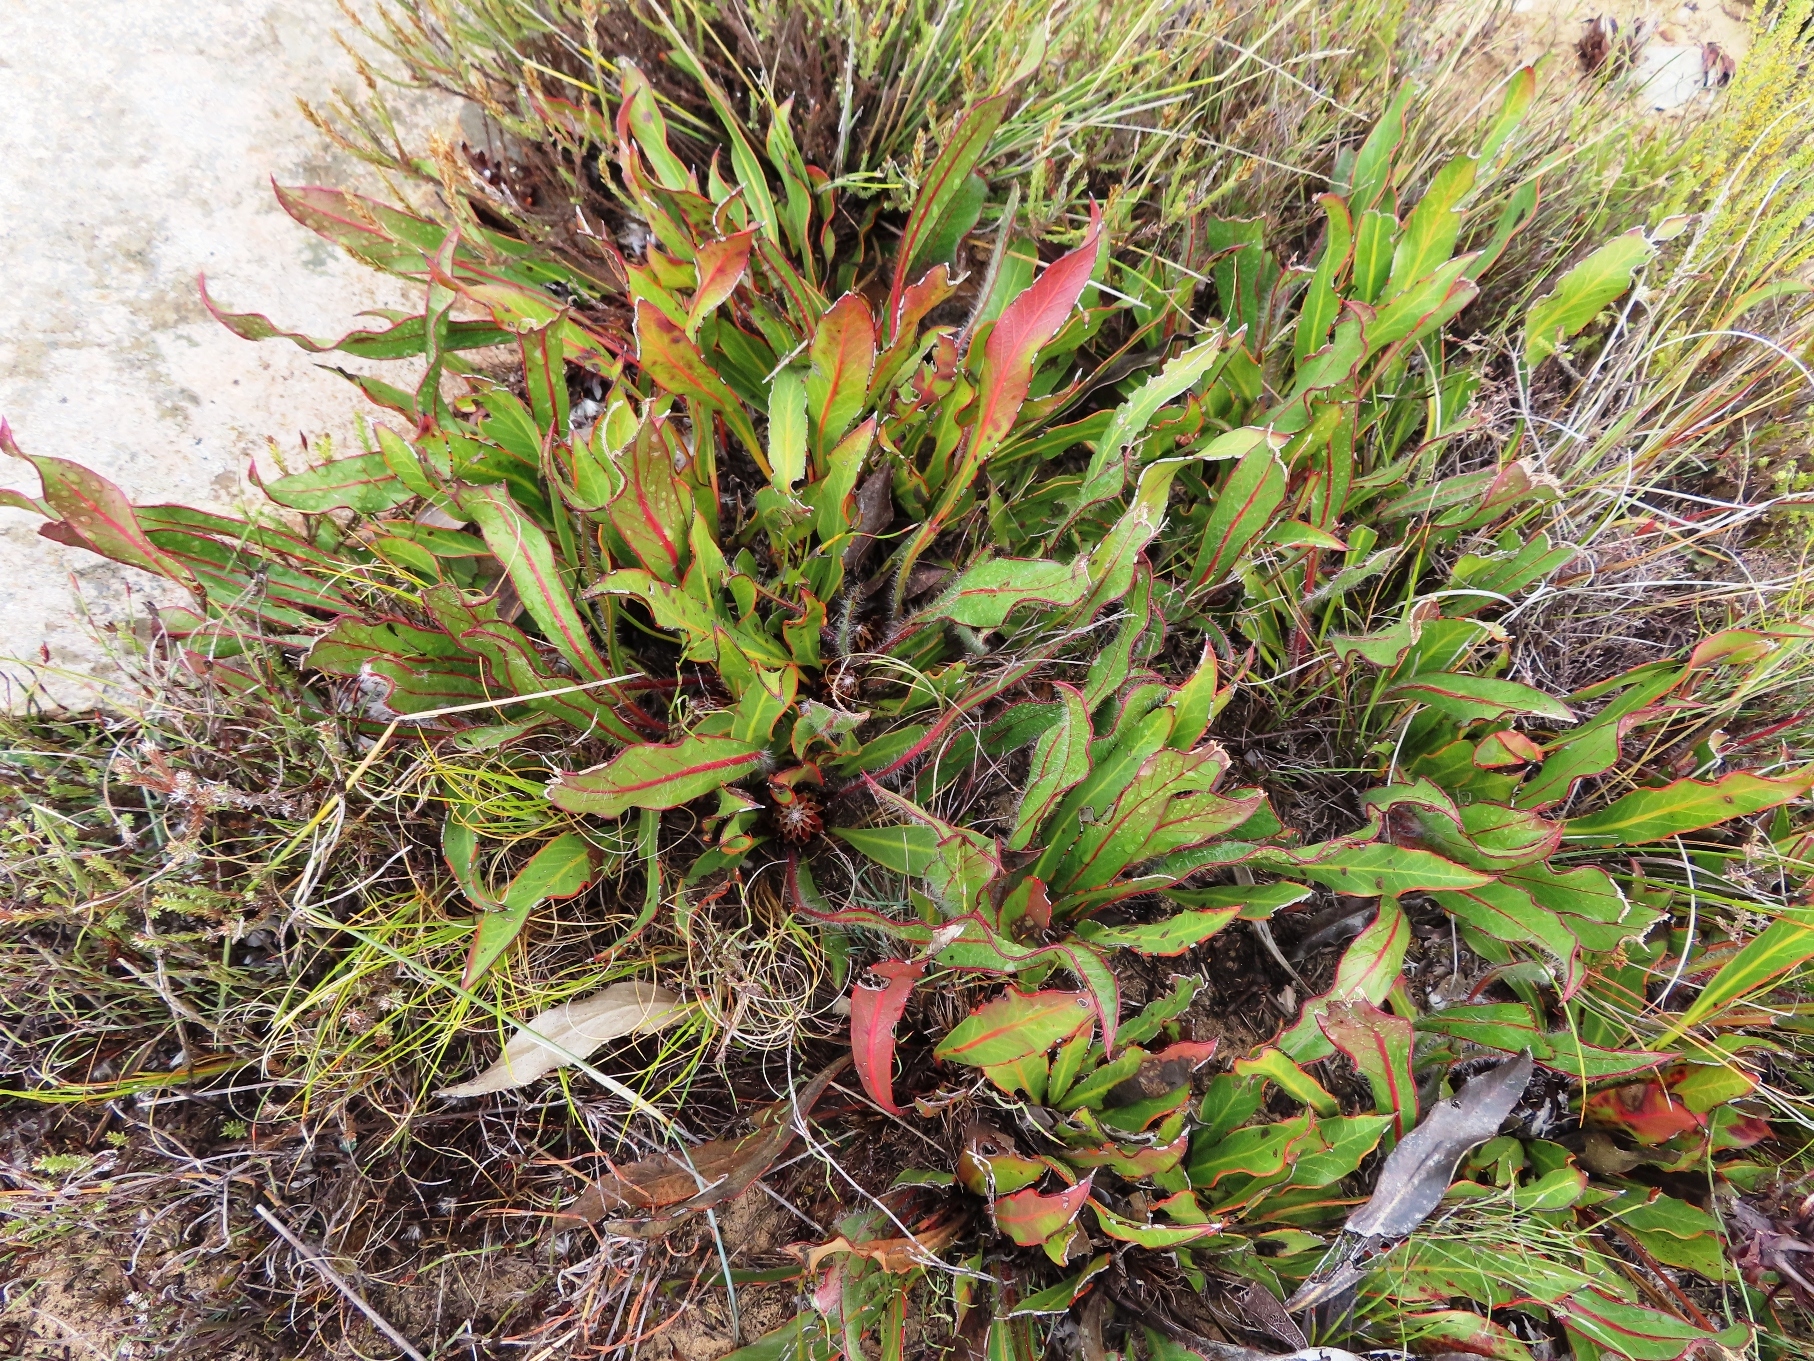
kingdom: Plantae
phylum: Tracheophyta
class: Magnoliopsida
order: Proteales
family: Proteaceae
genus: Protea
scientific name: Protea scolopendriifolia
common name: Harts-tongue-fern sugarbush
